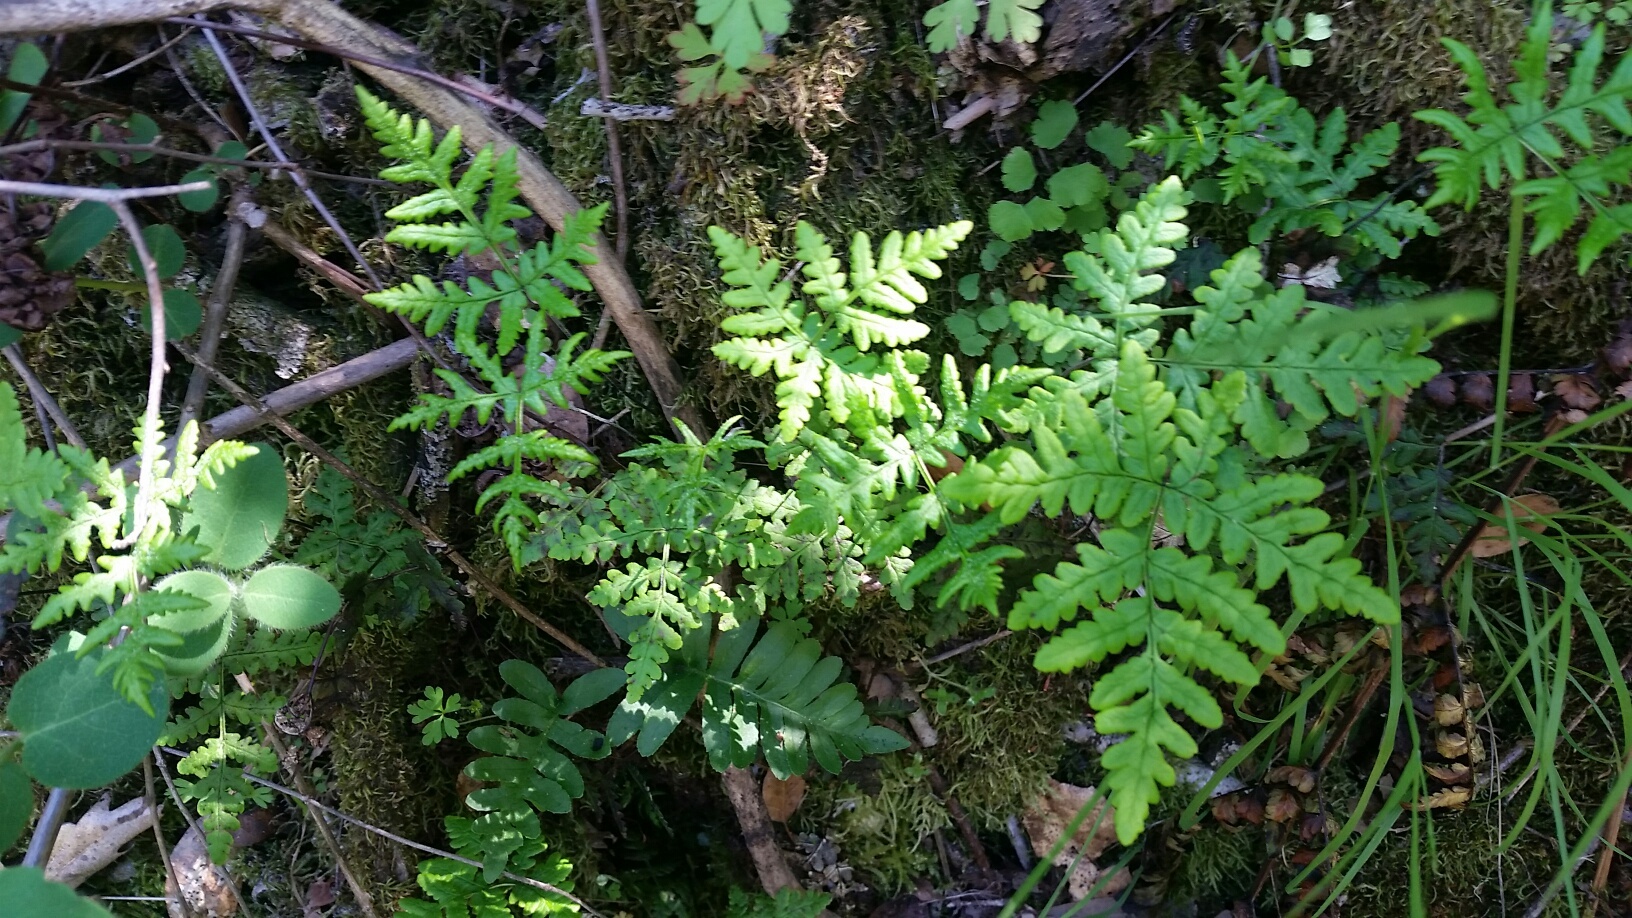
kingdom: Plantae
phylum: Tracheophyta
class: Polypodiopsida
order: Polypodiales
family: Pteridaceae
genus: Pentagramma
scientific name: Pentagramma triangularis
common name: Gold fern
